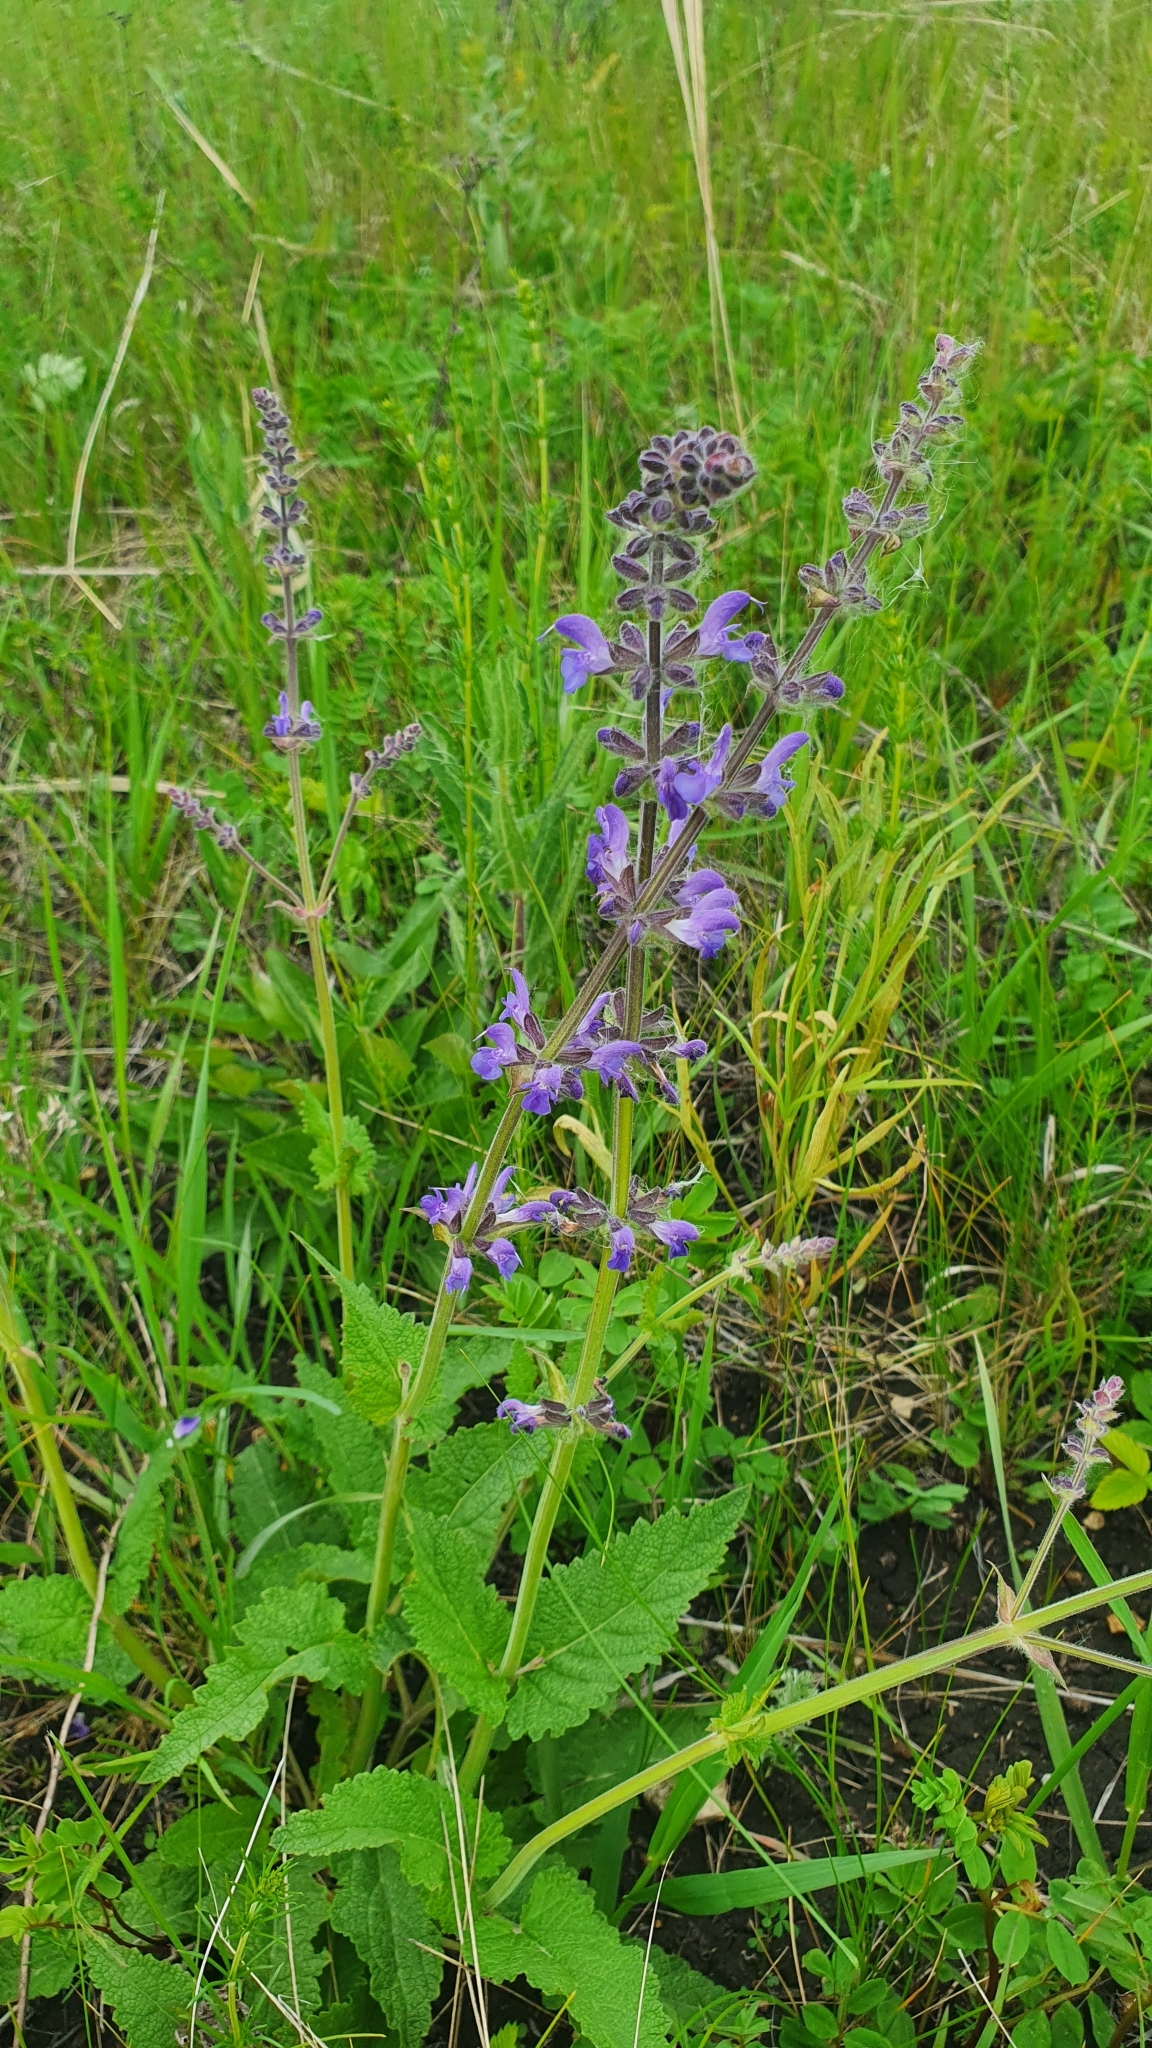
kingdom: Plantae
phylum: Tracheophyta
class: Magnoliopsida
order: Lamiales
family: Lamiaceae
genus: Salvia
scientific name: Salvia dumetorum
